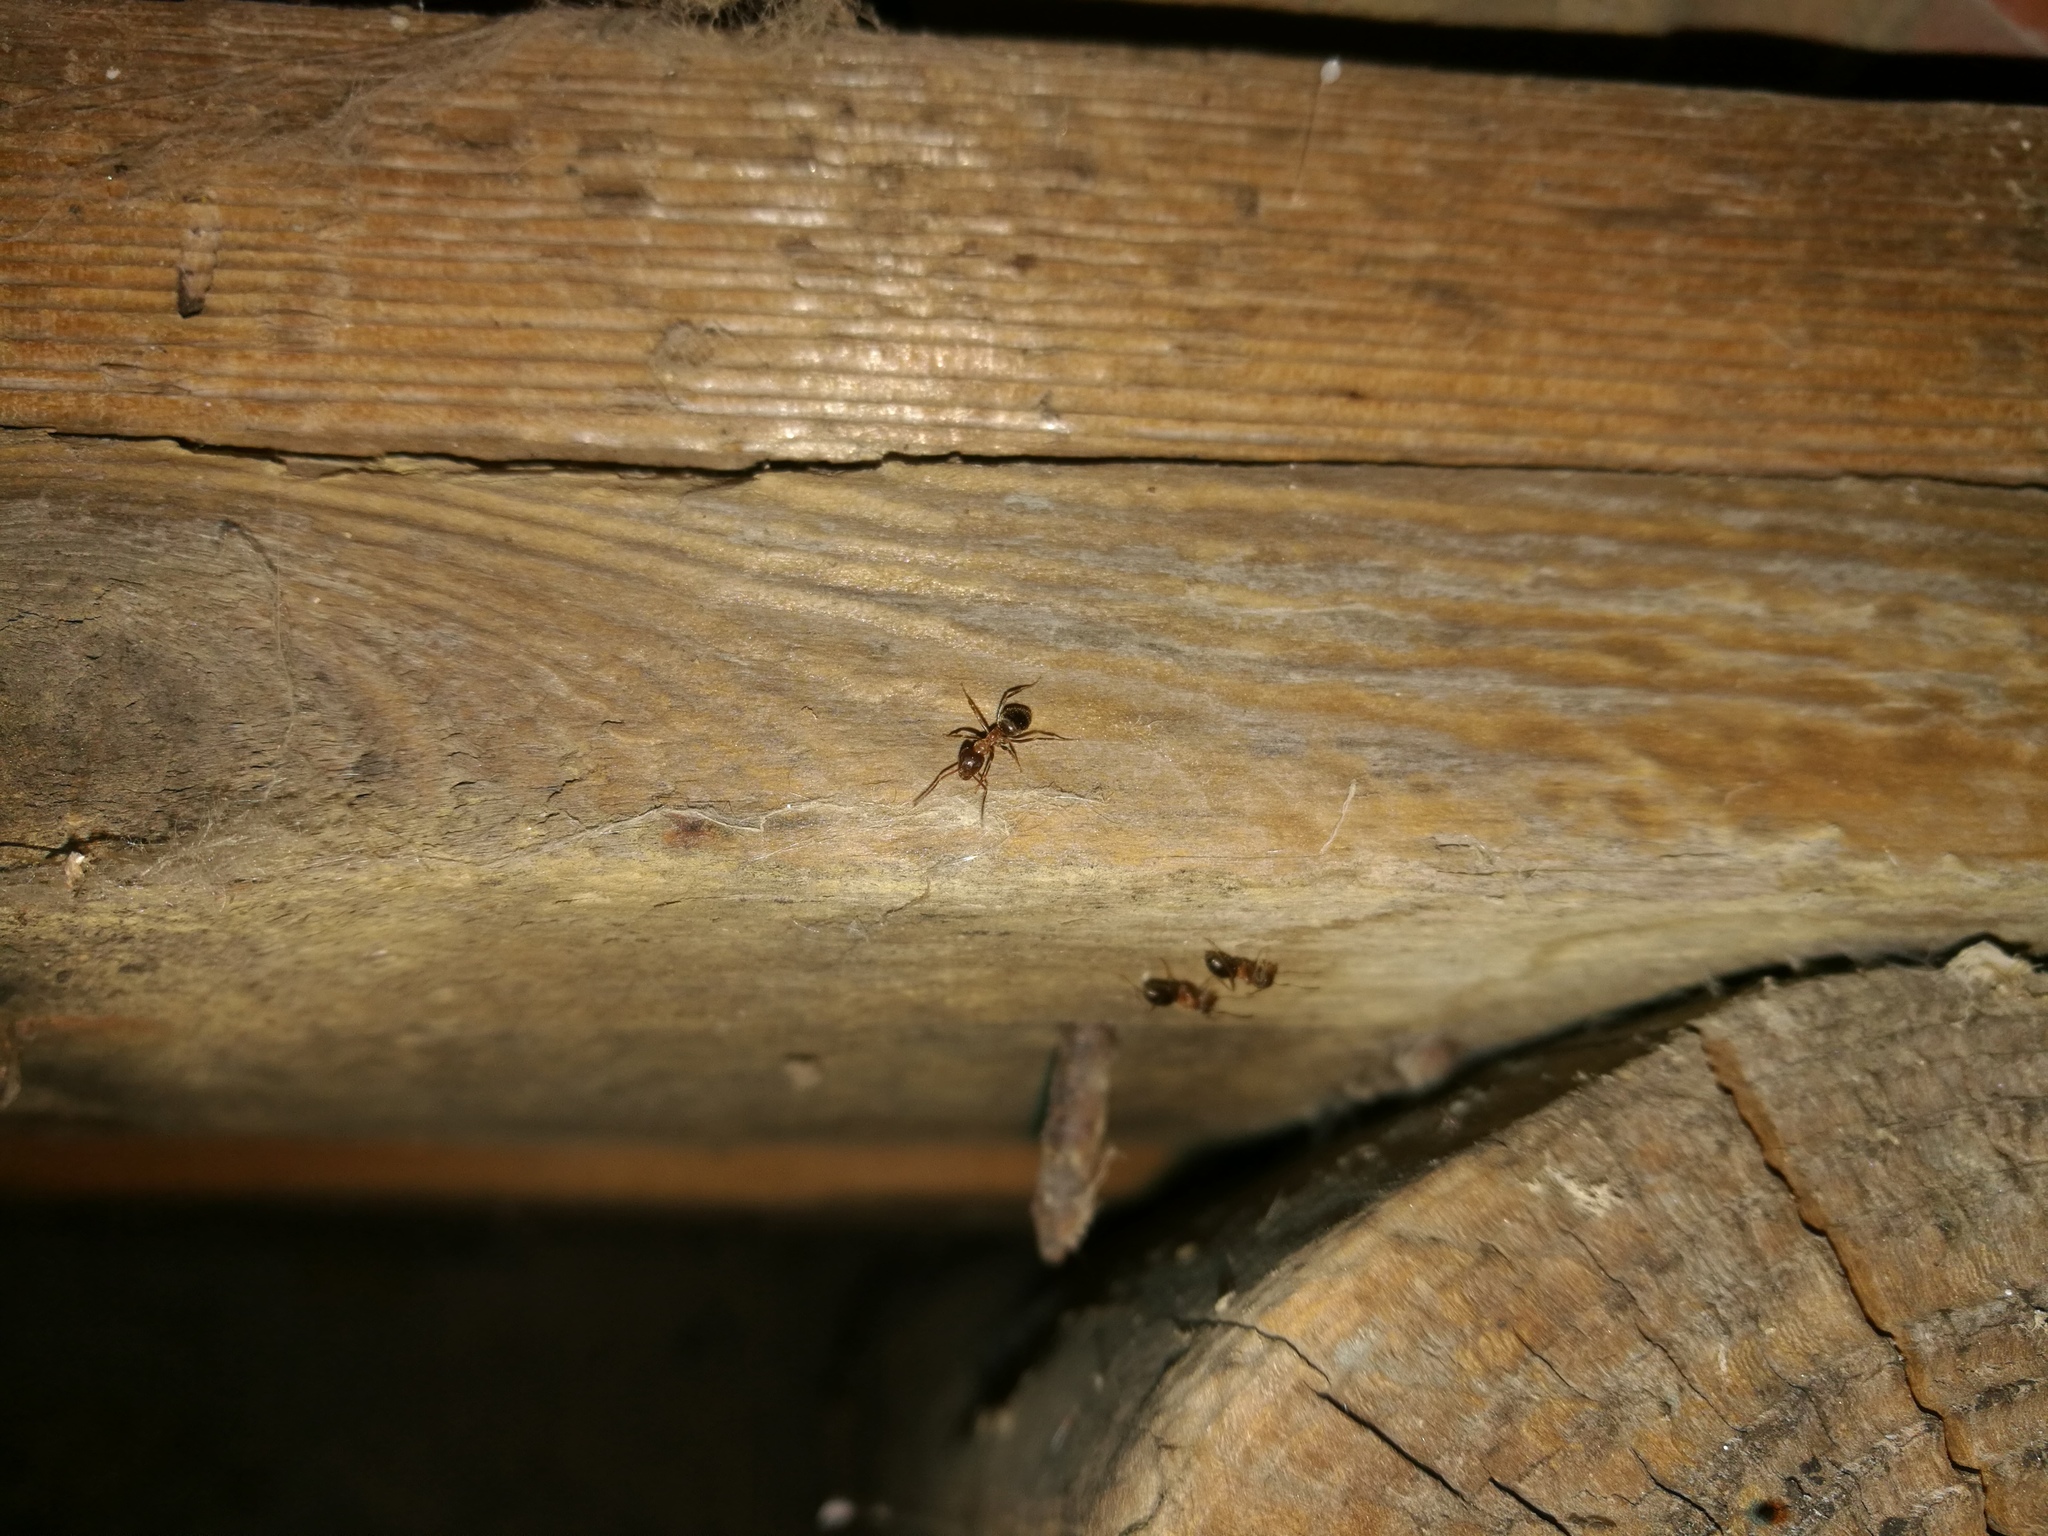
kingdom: Animalia
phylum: Arthropoda
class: Insecta
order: Hymenoptera
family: Formicidae
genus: Lasius
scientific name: Lasius emarginatus
